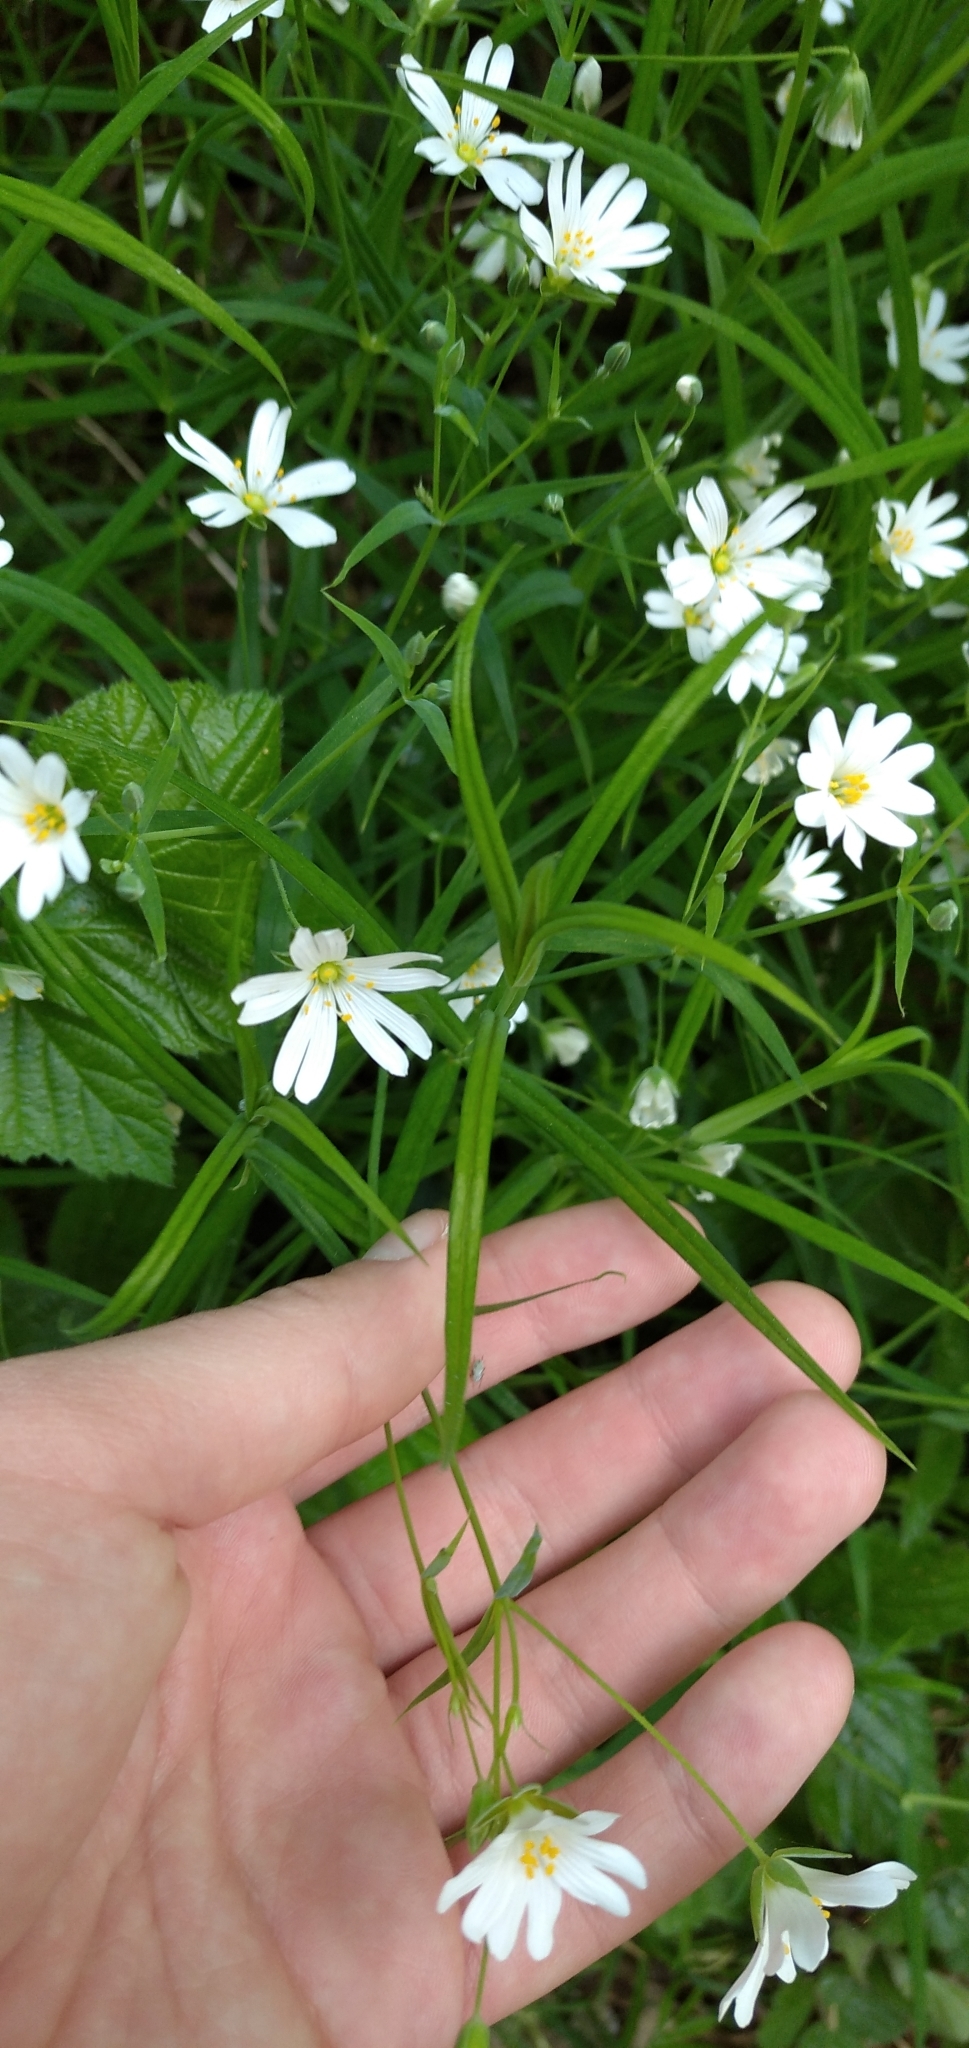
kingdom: Plantae
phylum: Tracheophyta
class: Magnoliopsida
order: Caryophyllales
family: Caryophyllaceae
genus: Rabelera
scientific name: Rabelera holostea
